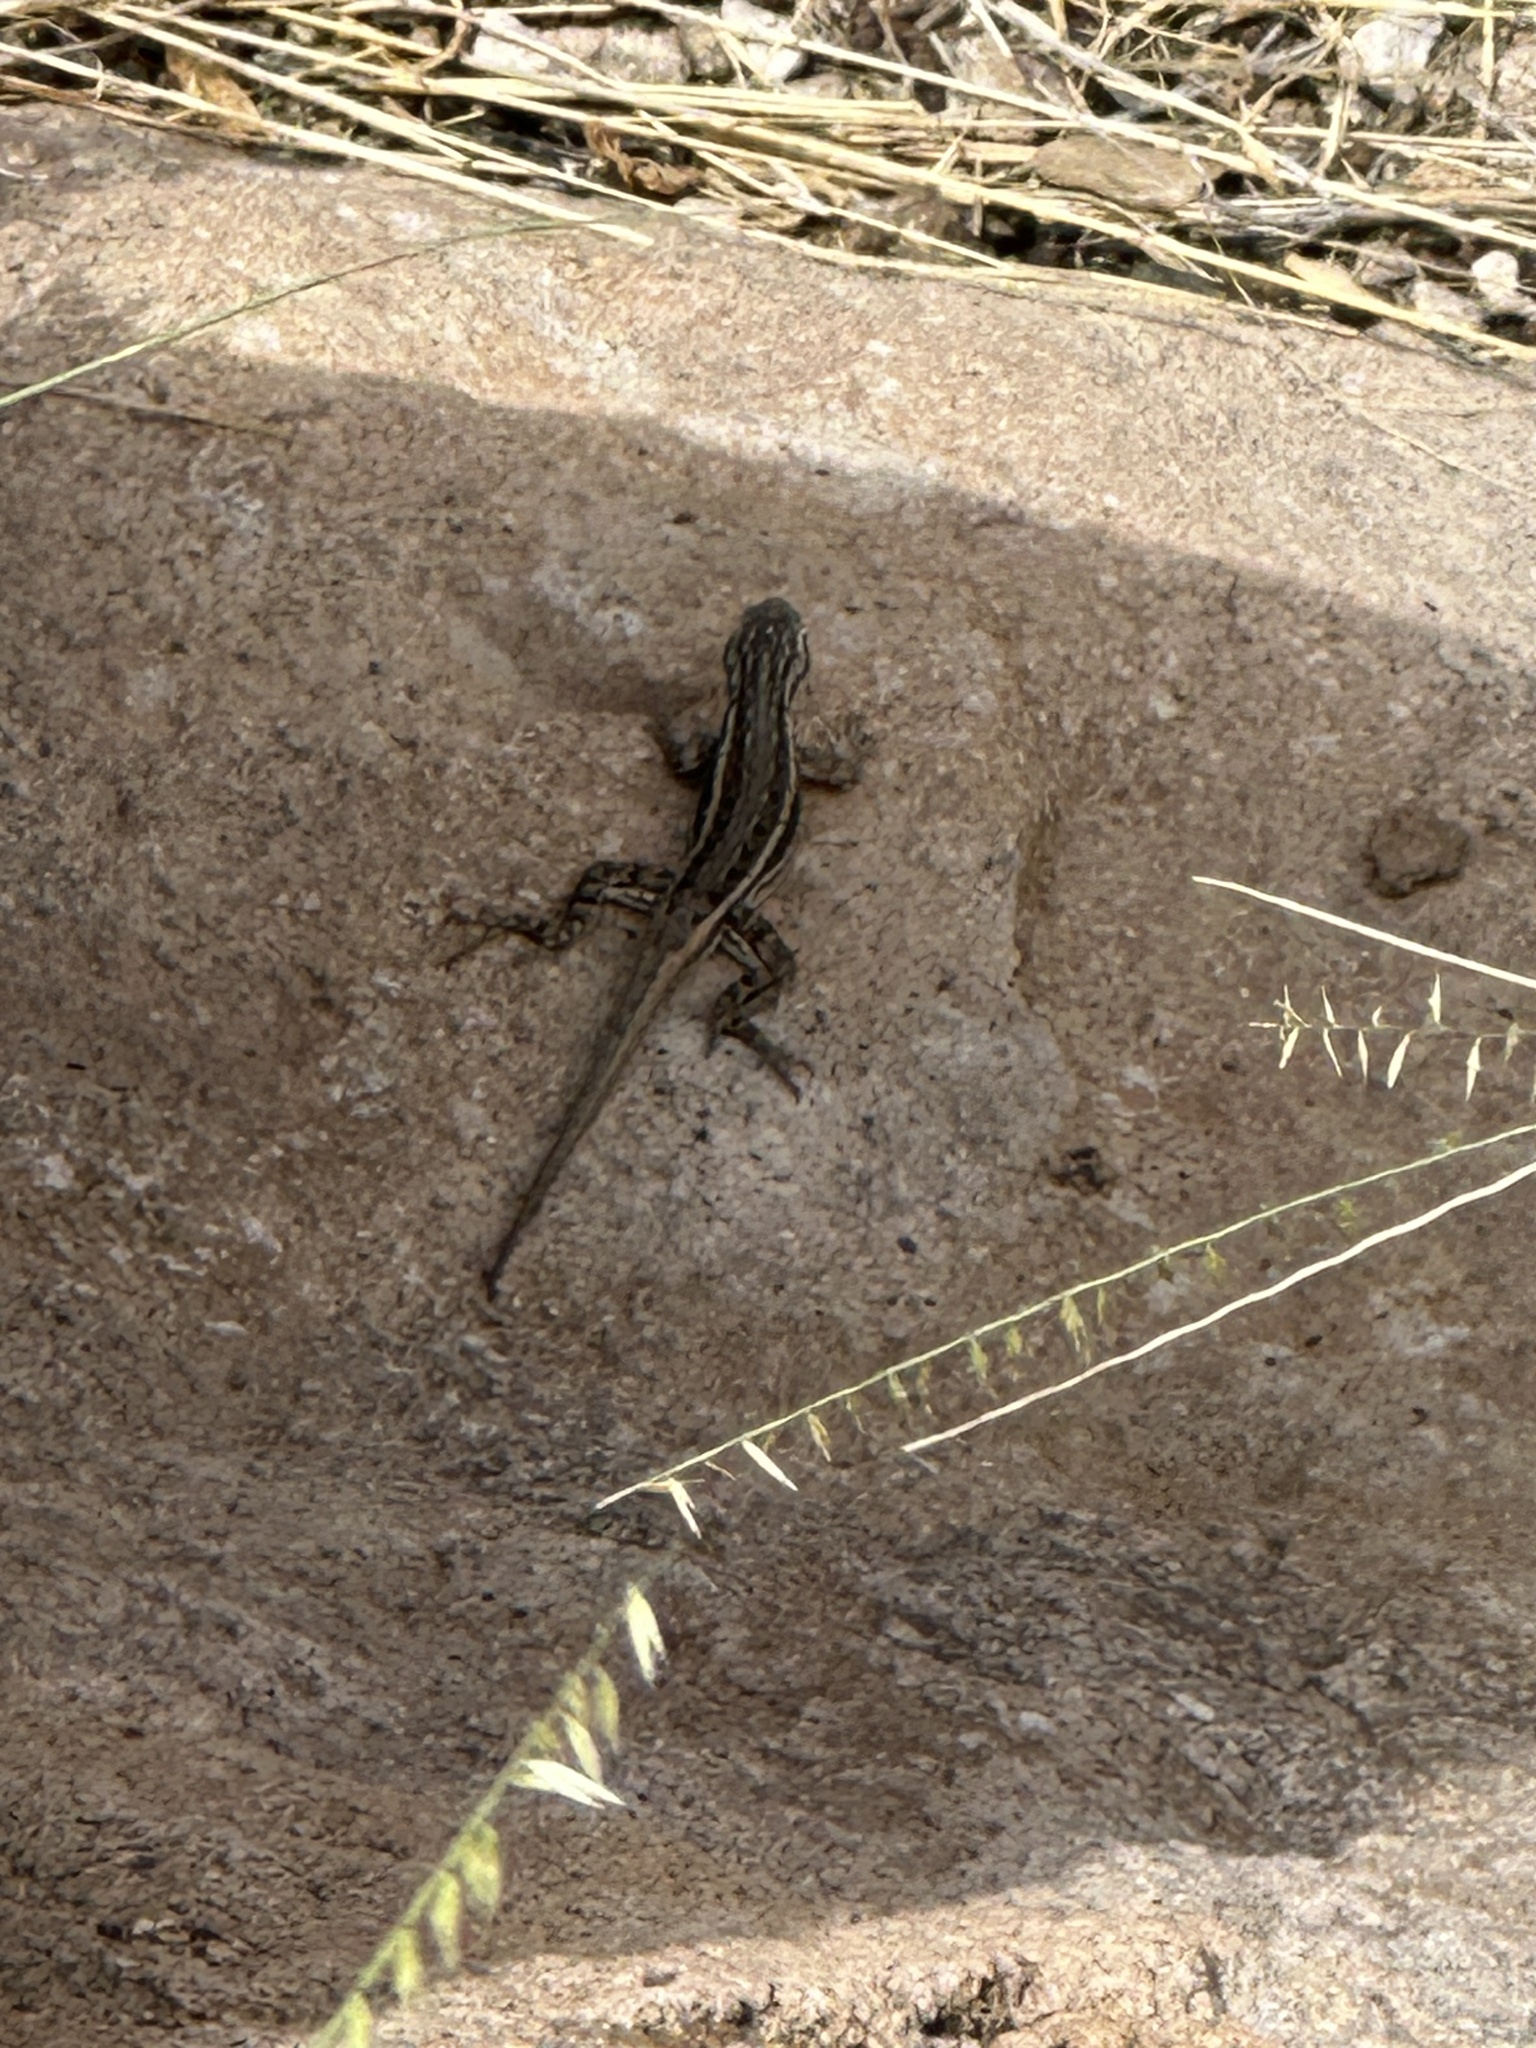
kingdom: Animalia
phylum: Chordata
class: Squamata
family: Phrynosomatidae
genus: Sceloporus
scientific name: Sceloporus cowlesi
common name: White sands prairie lizard
